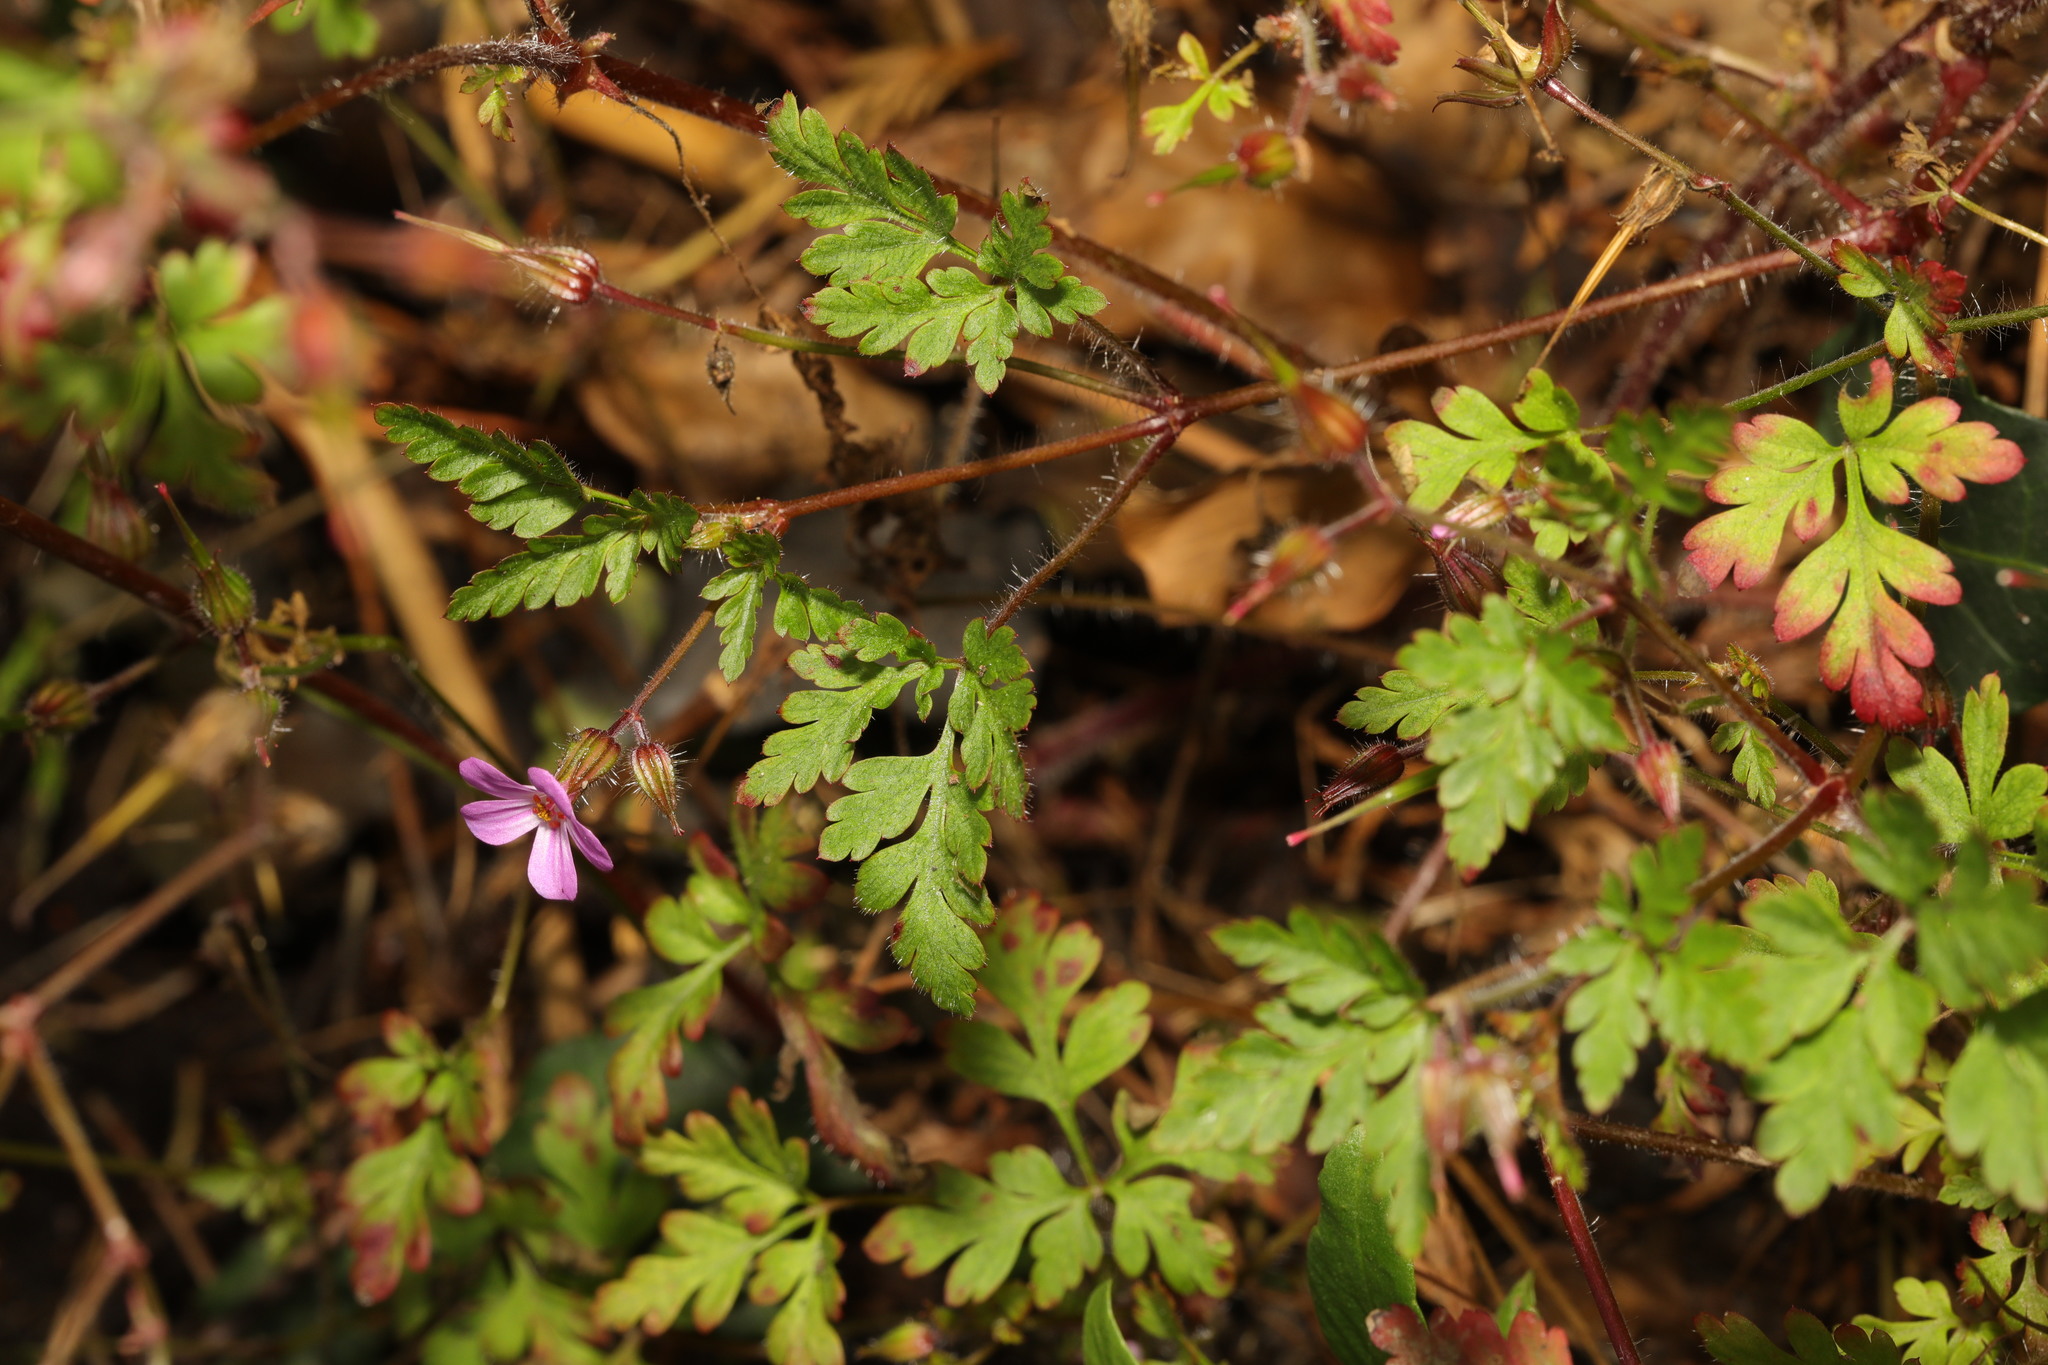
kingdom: Plantae
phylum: Tracheophyta
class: Magnoliopsida
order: Geraniales
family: Geraniaceae
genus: Geranium
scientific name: Geranium robertianum
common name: Herb-robert
